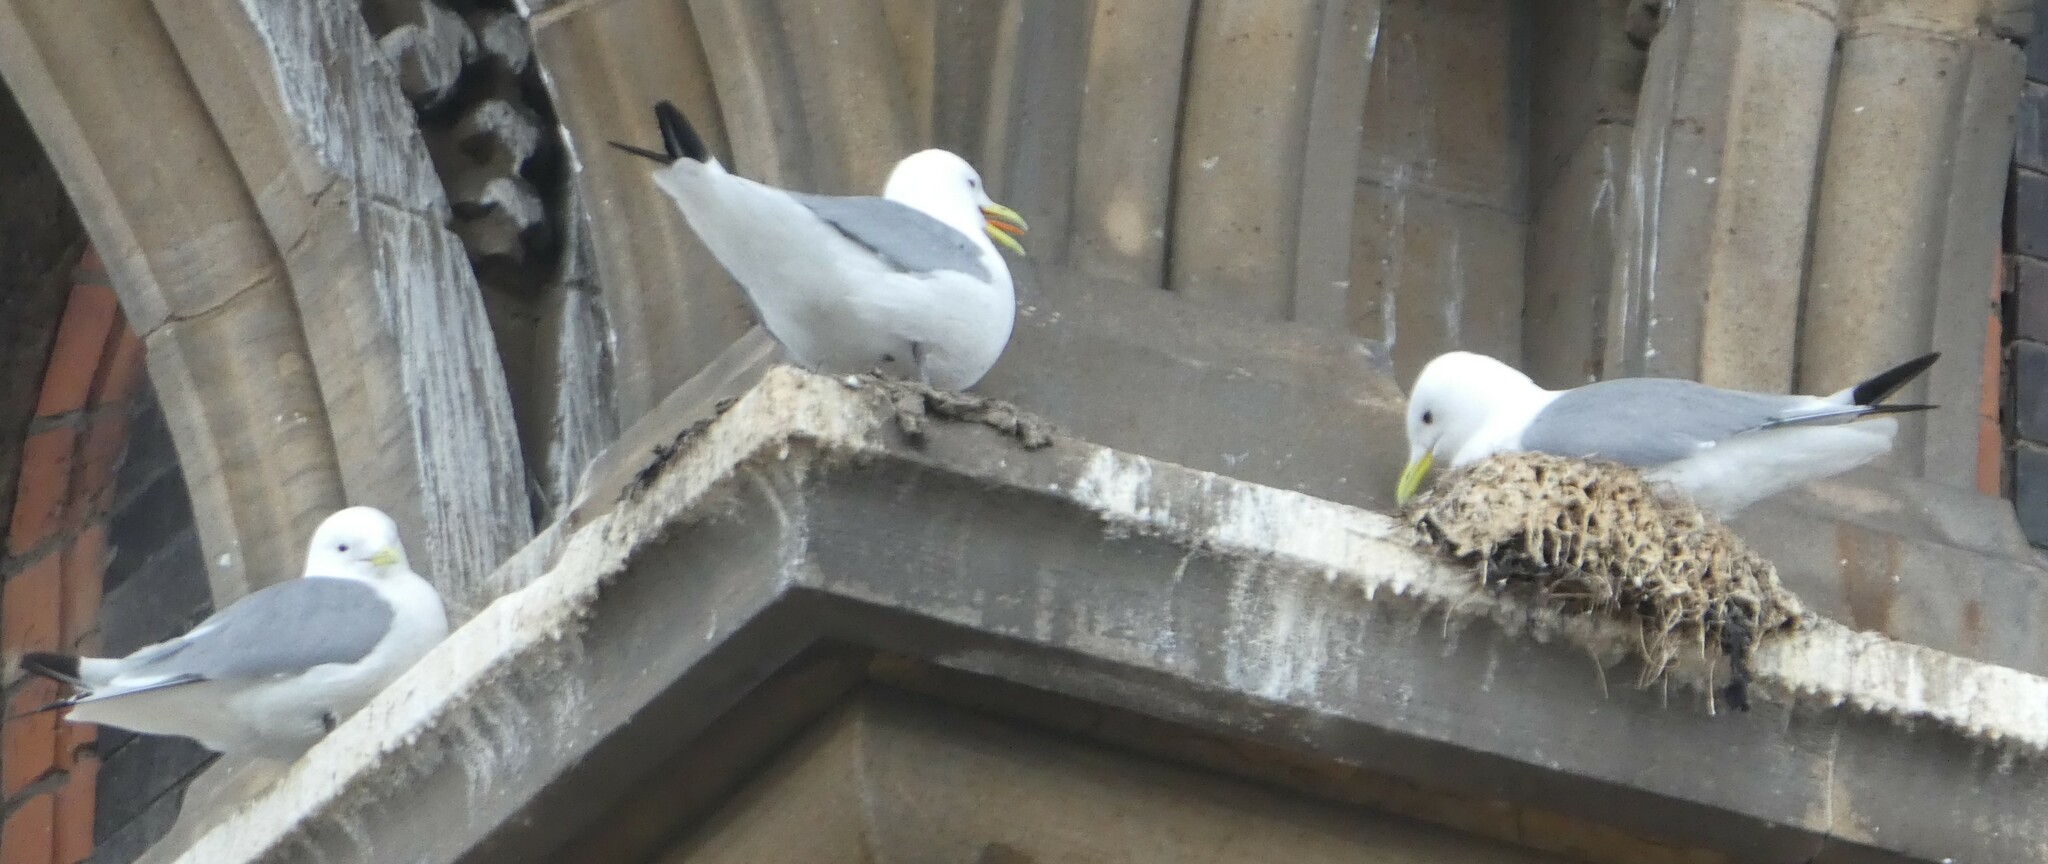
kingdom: Animalia
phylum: Chordata
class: Aves
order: Charadriiformes
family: Laridae
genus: Rissa
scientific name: Rissa tridactyla
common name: Black-legged kittiwake
